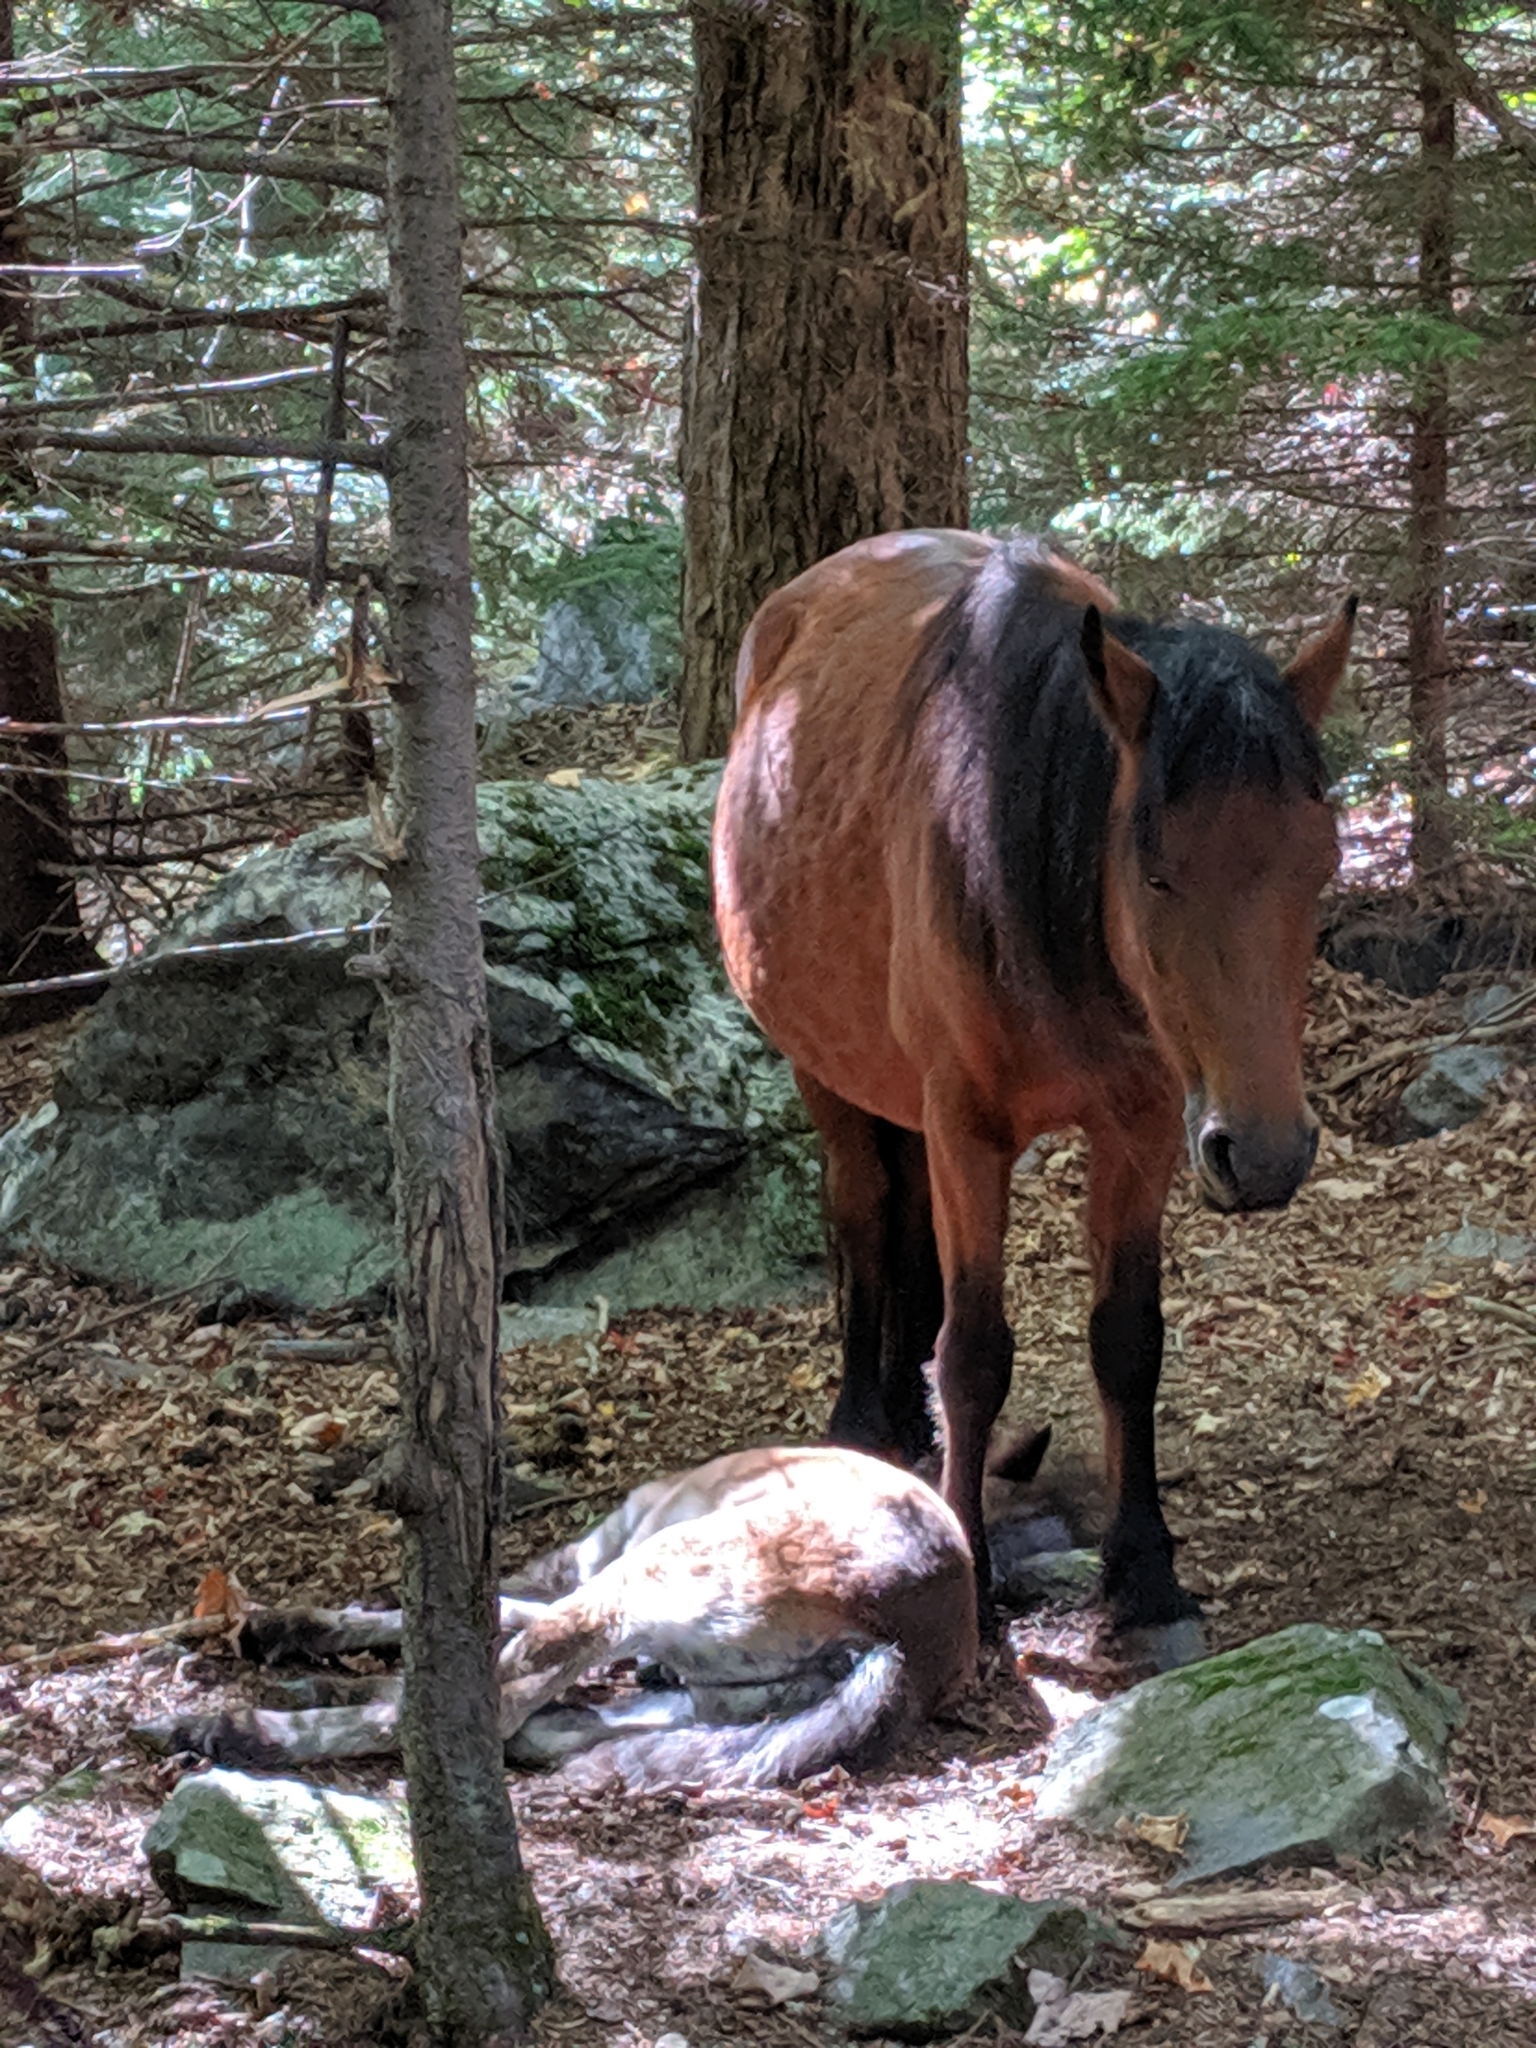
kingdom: Animalia
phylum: Chordata
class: Mammalia
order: Perissodactyla
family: Equidae
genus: Equus
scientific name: Equus caballus
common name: Horse
